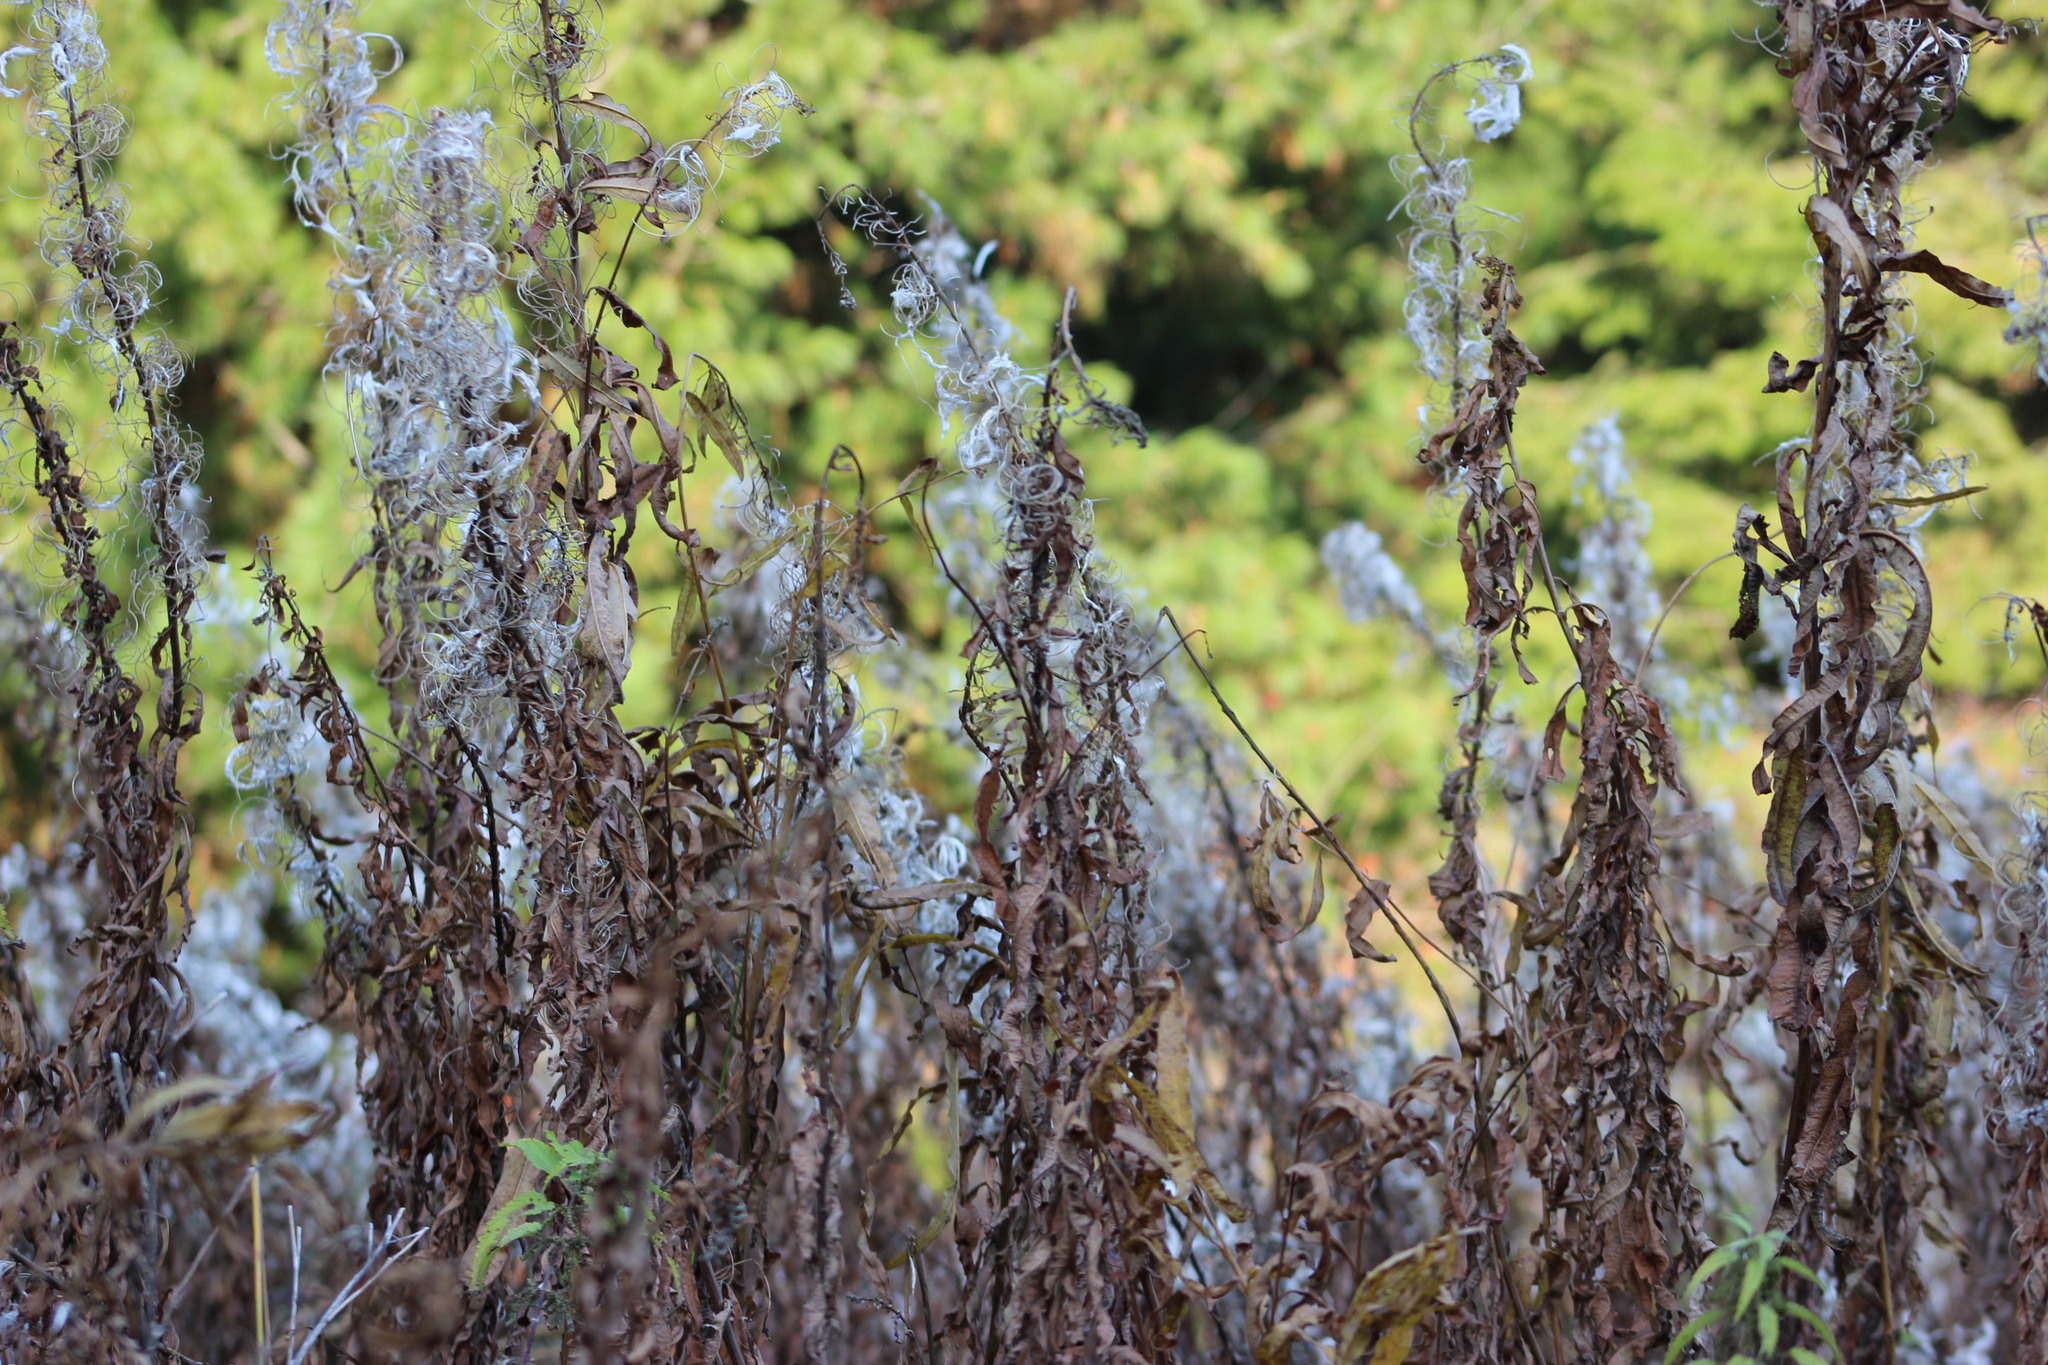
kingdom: Plantae
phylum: Tracheophyta
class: Magnoliopsida
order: Myrtales
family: Onagraceae
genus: Chamaenerion
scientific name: Chamaenerion angustifolium
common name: Fireweed
